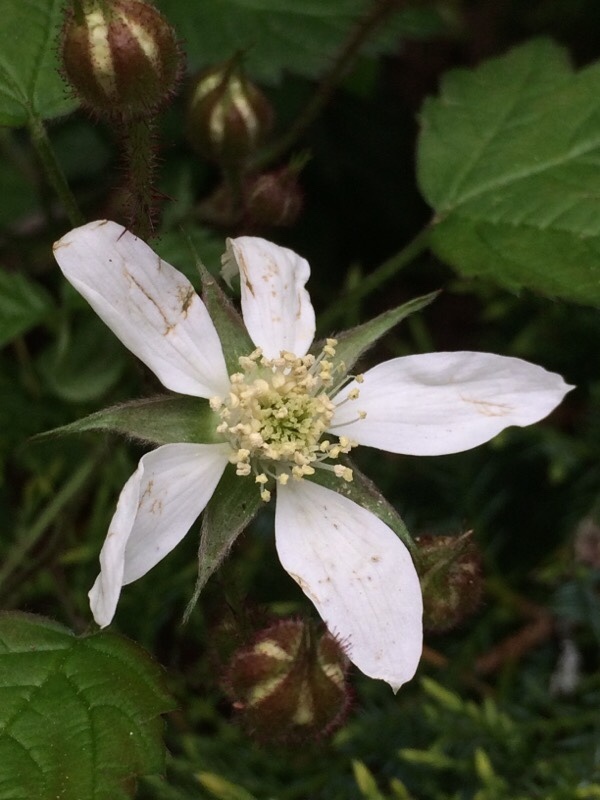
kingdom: Plantae
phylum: Tracheophyta
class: Magnoliopsida
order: Rosales
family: Rosaceae
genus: Rubus
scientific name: Rubus ursinus
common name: Pacific blackberry
